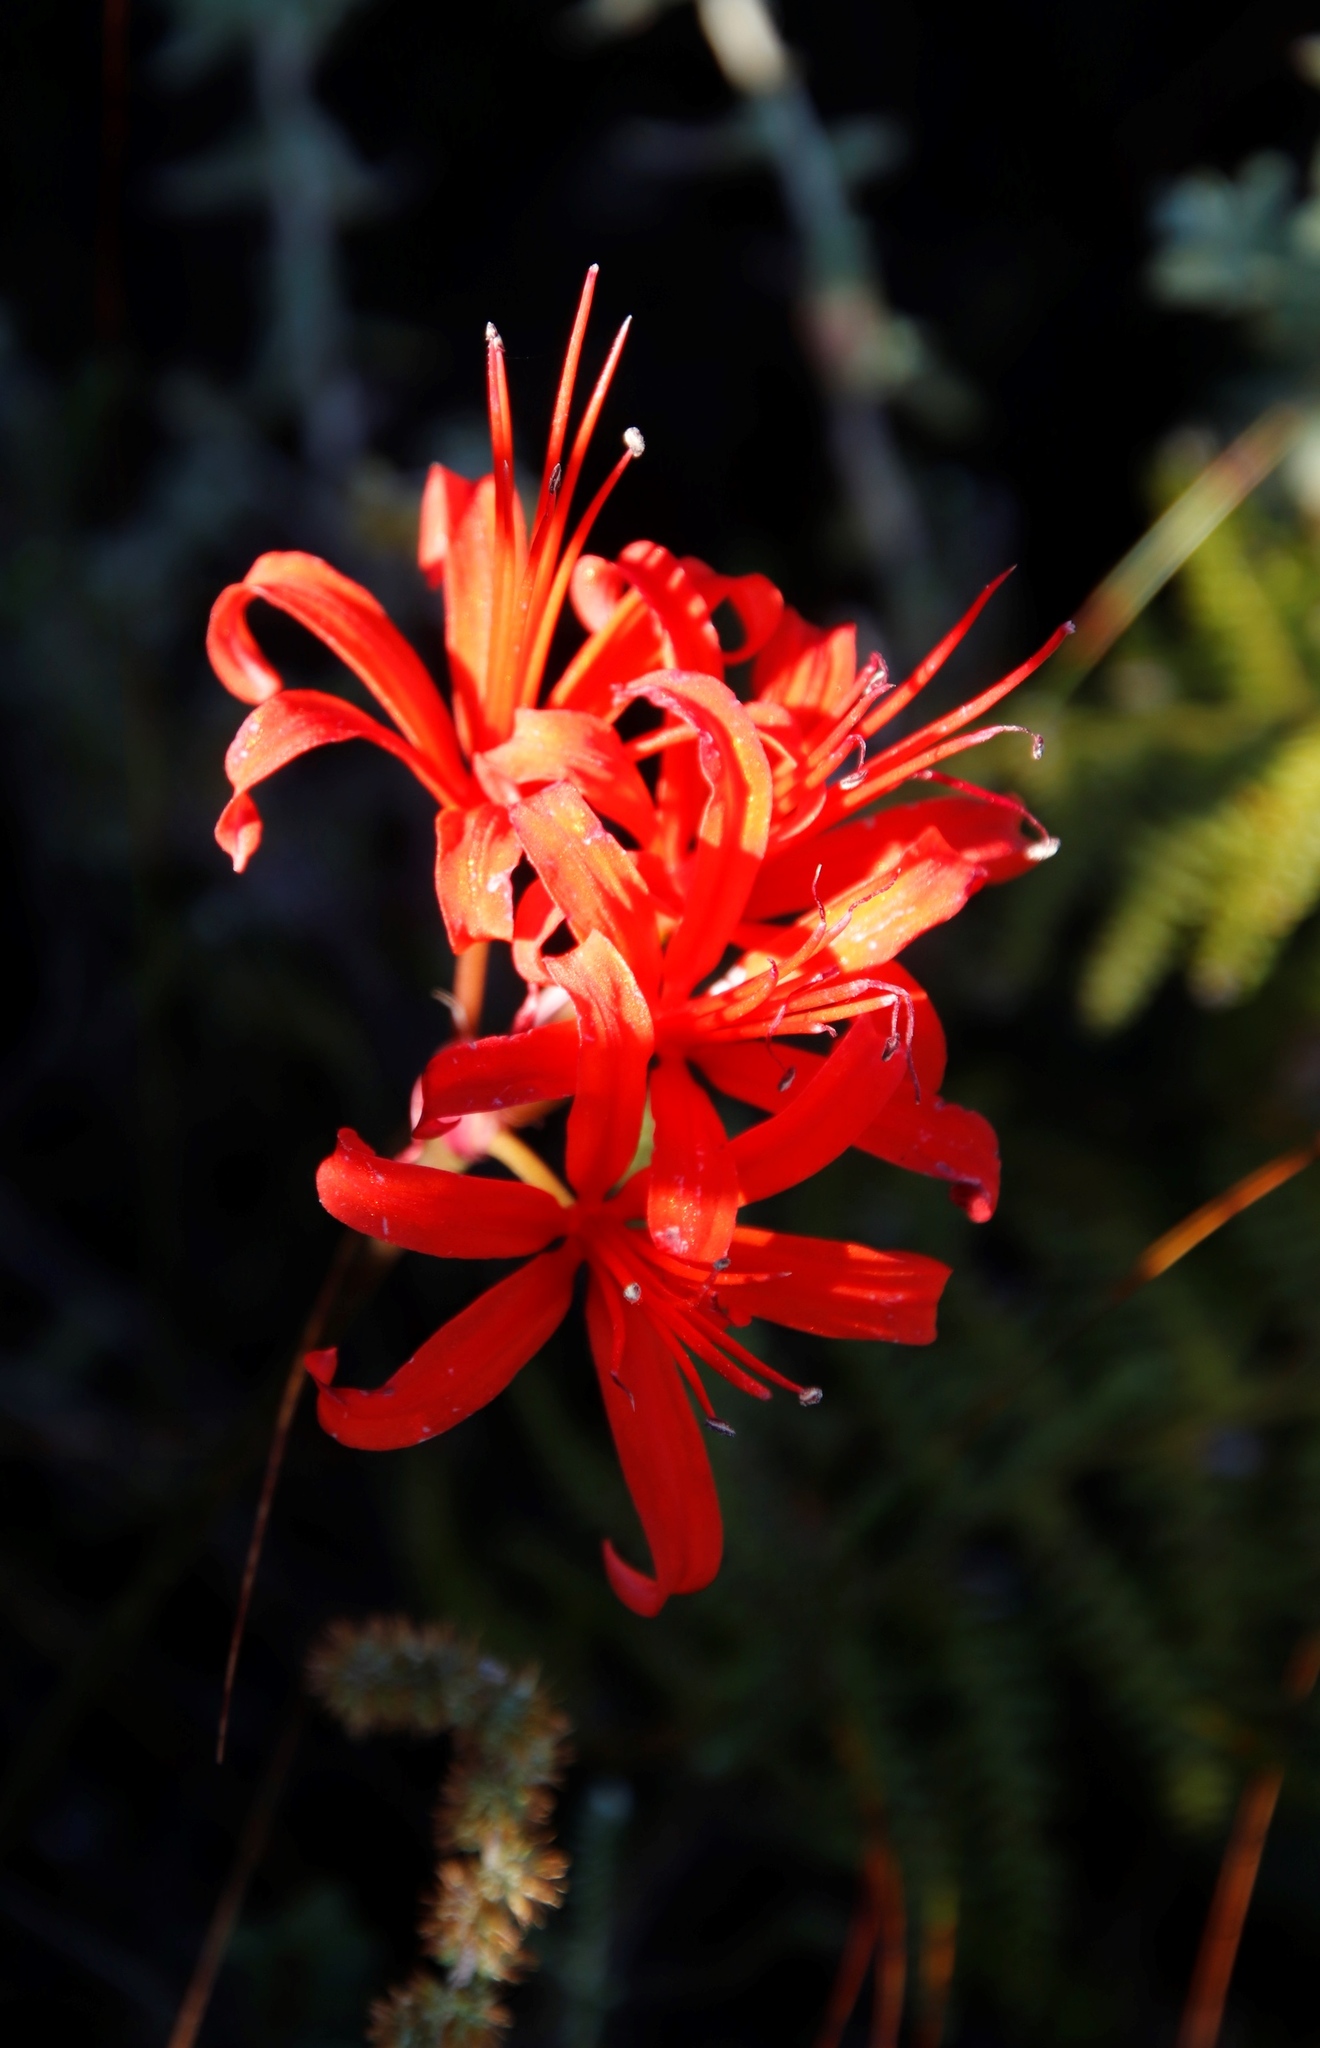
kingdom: Plantae
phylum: Tracheophyta
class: Liliopsida
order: Asparagales
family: Amaryllidaceae
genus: Nerine
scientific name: Nerine sarniensis
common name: Guernsey-lily
